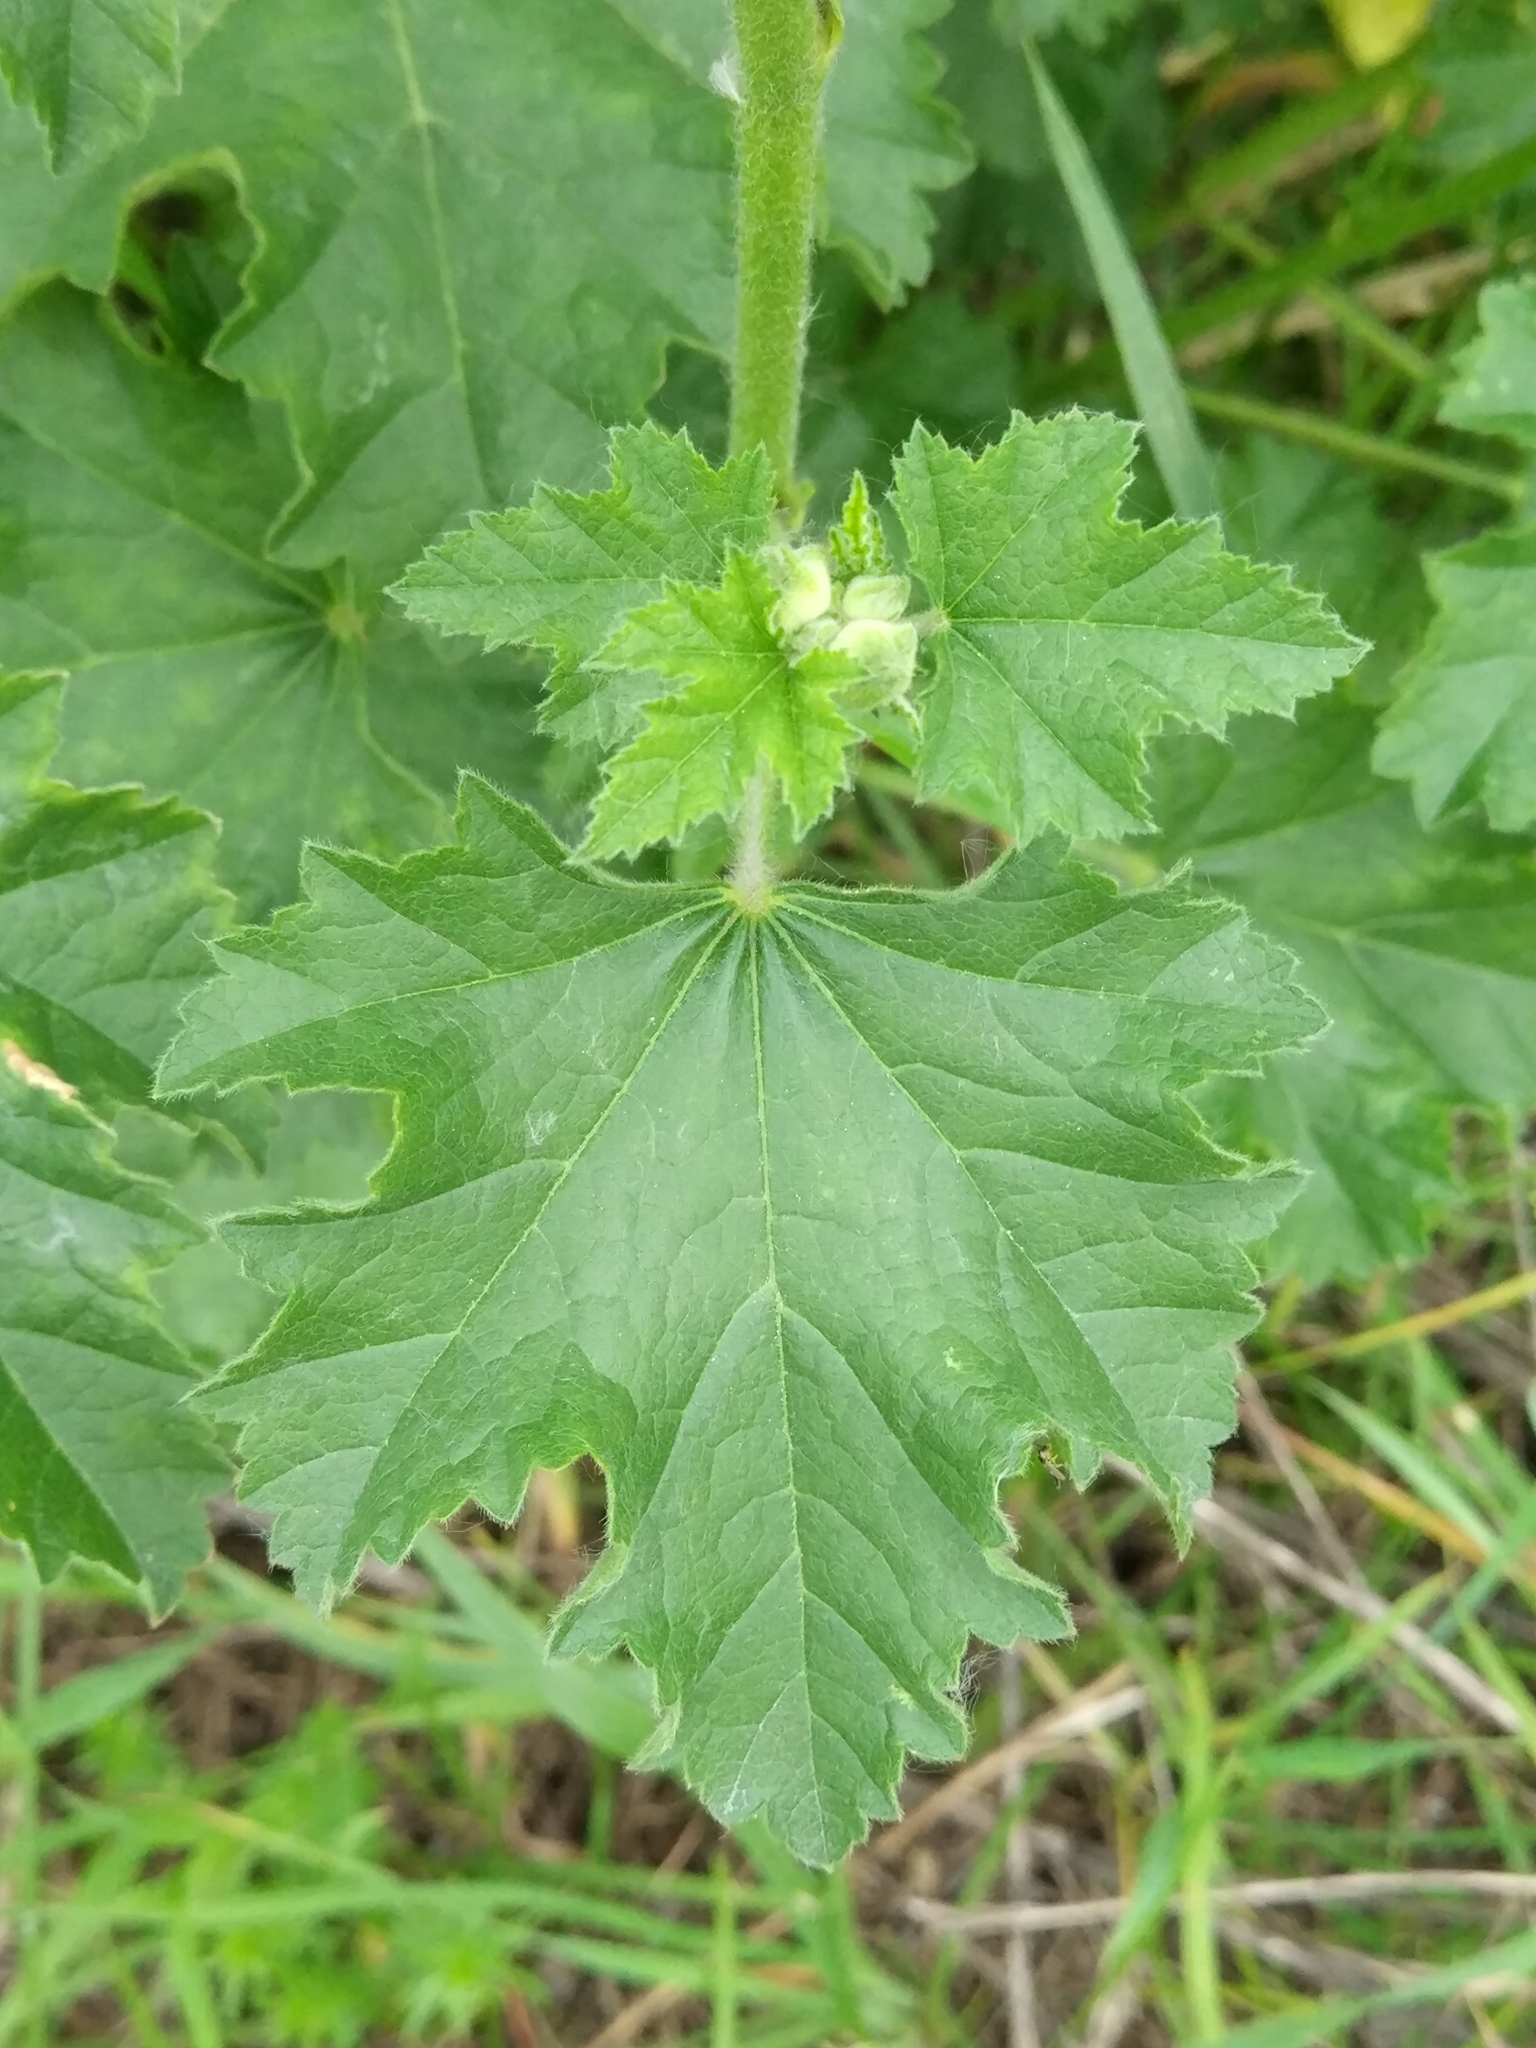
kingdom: Plantae
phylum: Tracheophyta
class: Magnoliopsida
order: Malvales
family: Malvaceae
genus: Malva
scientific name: Malva thuringiaca
